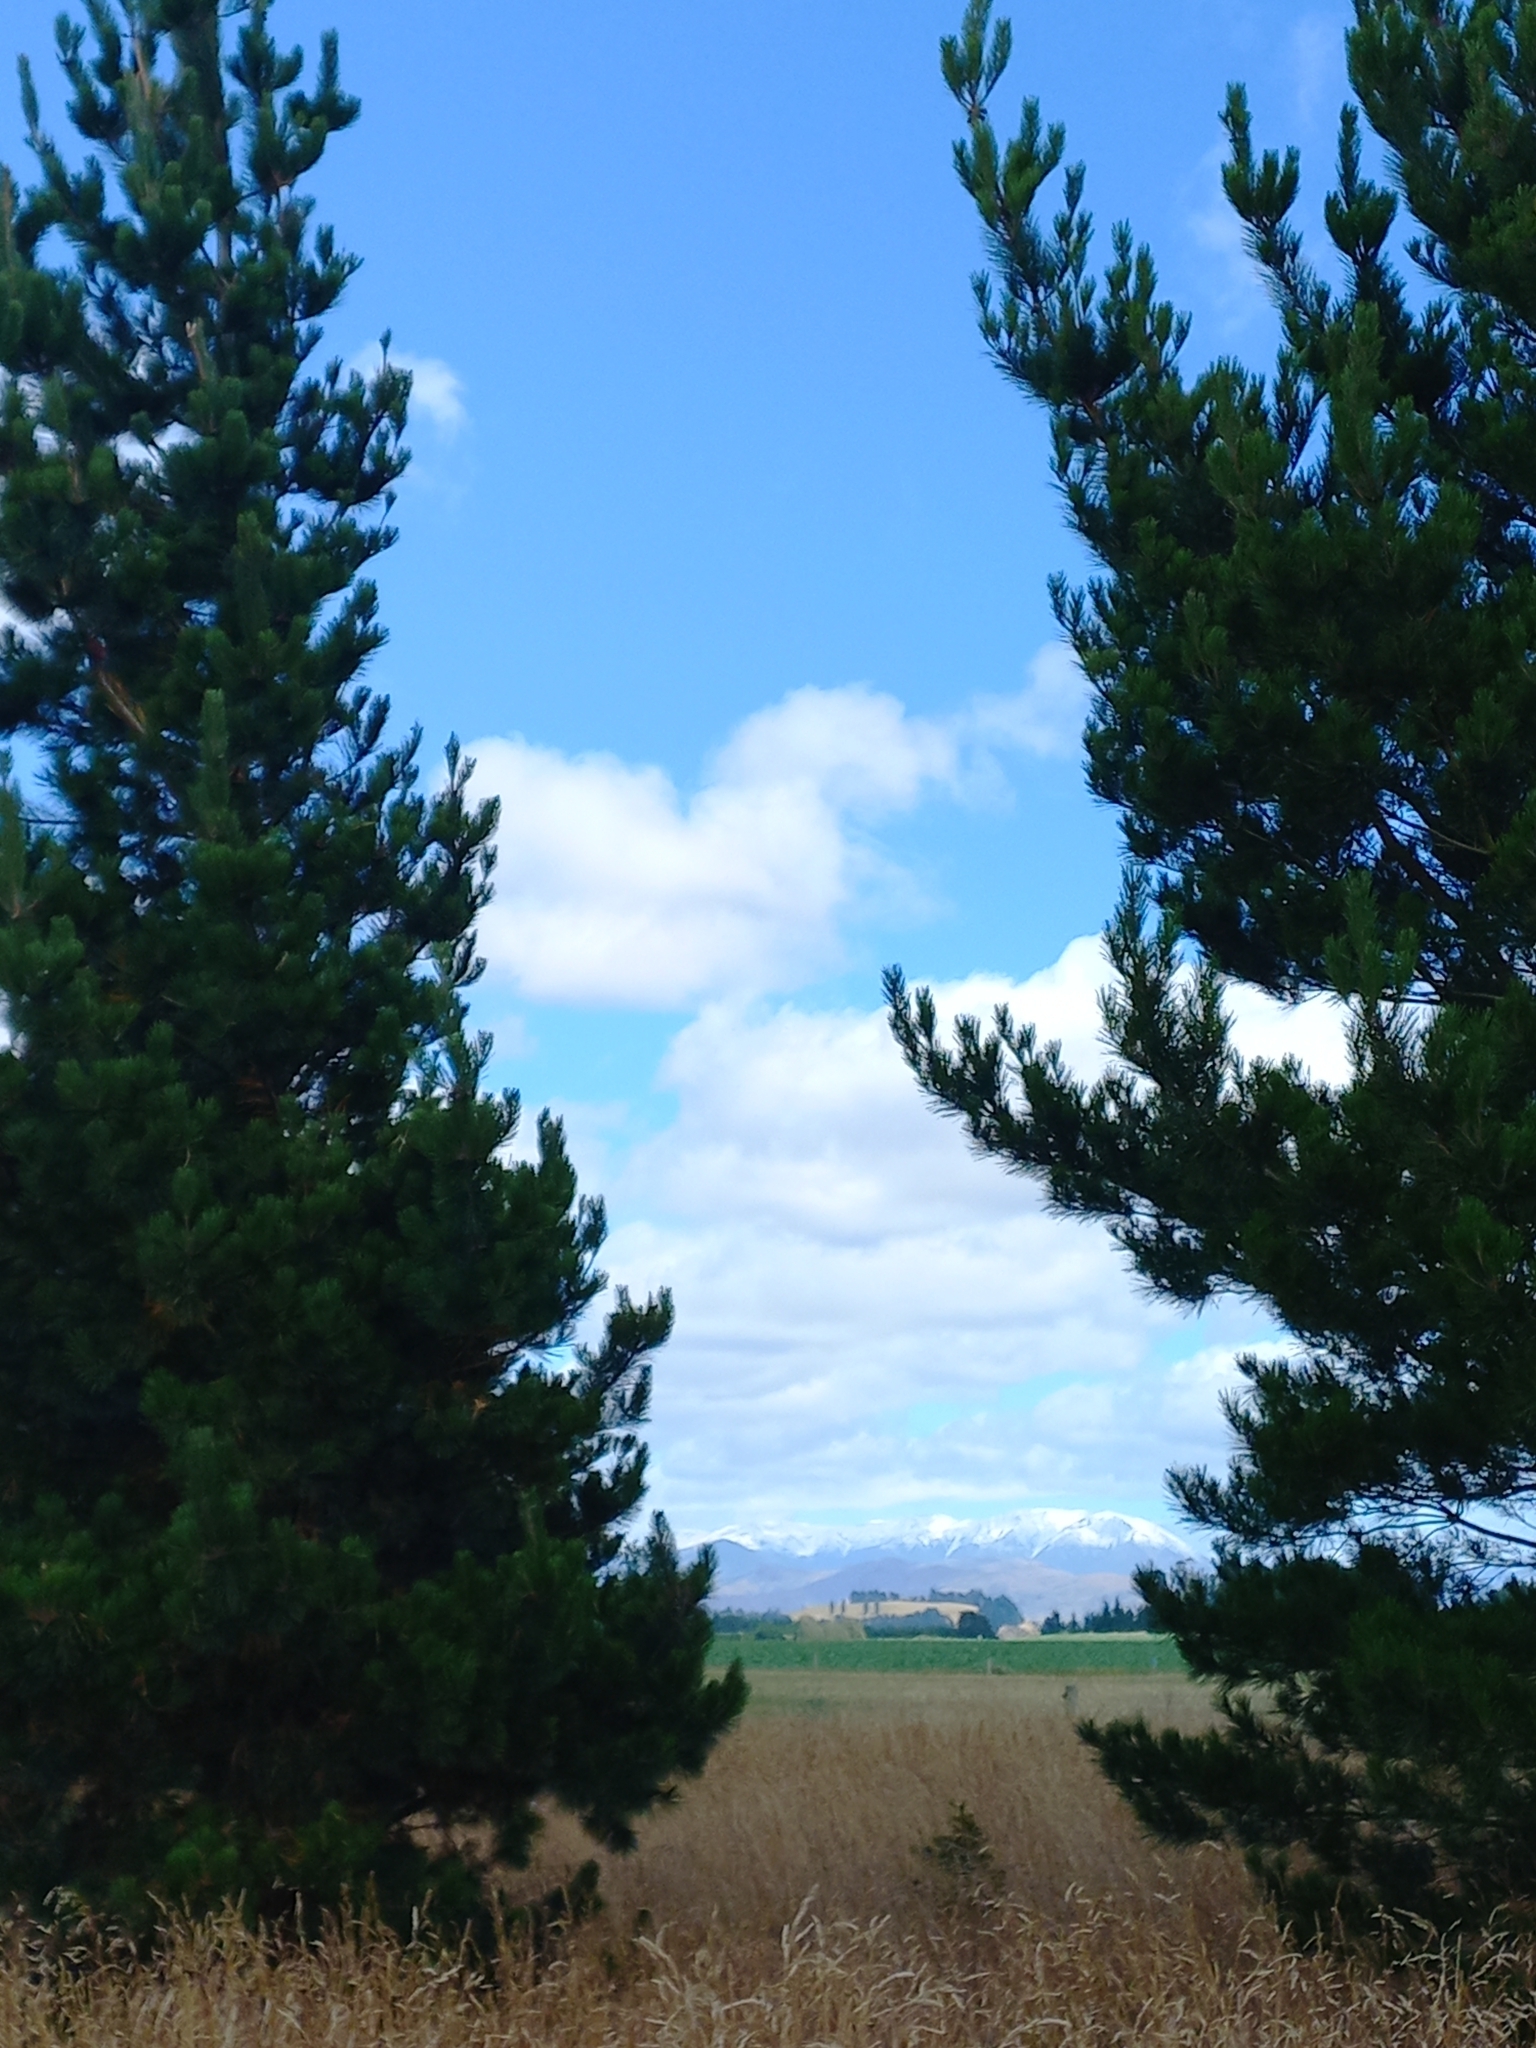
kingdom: Plantae
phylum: Tracheophyta
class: Pinopsida
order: Pinales
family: Pinaceae
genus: Pinus
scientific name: Pinus radiata
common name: Monterey pine
